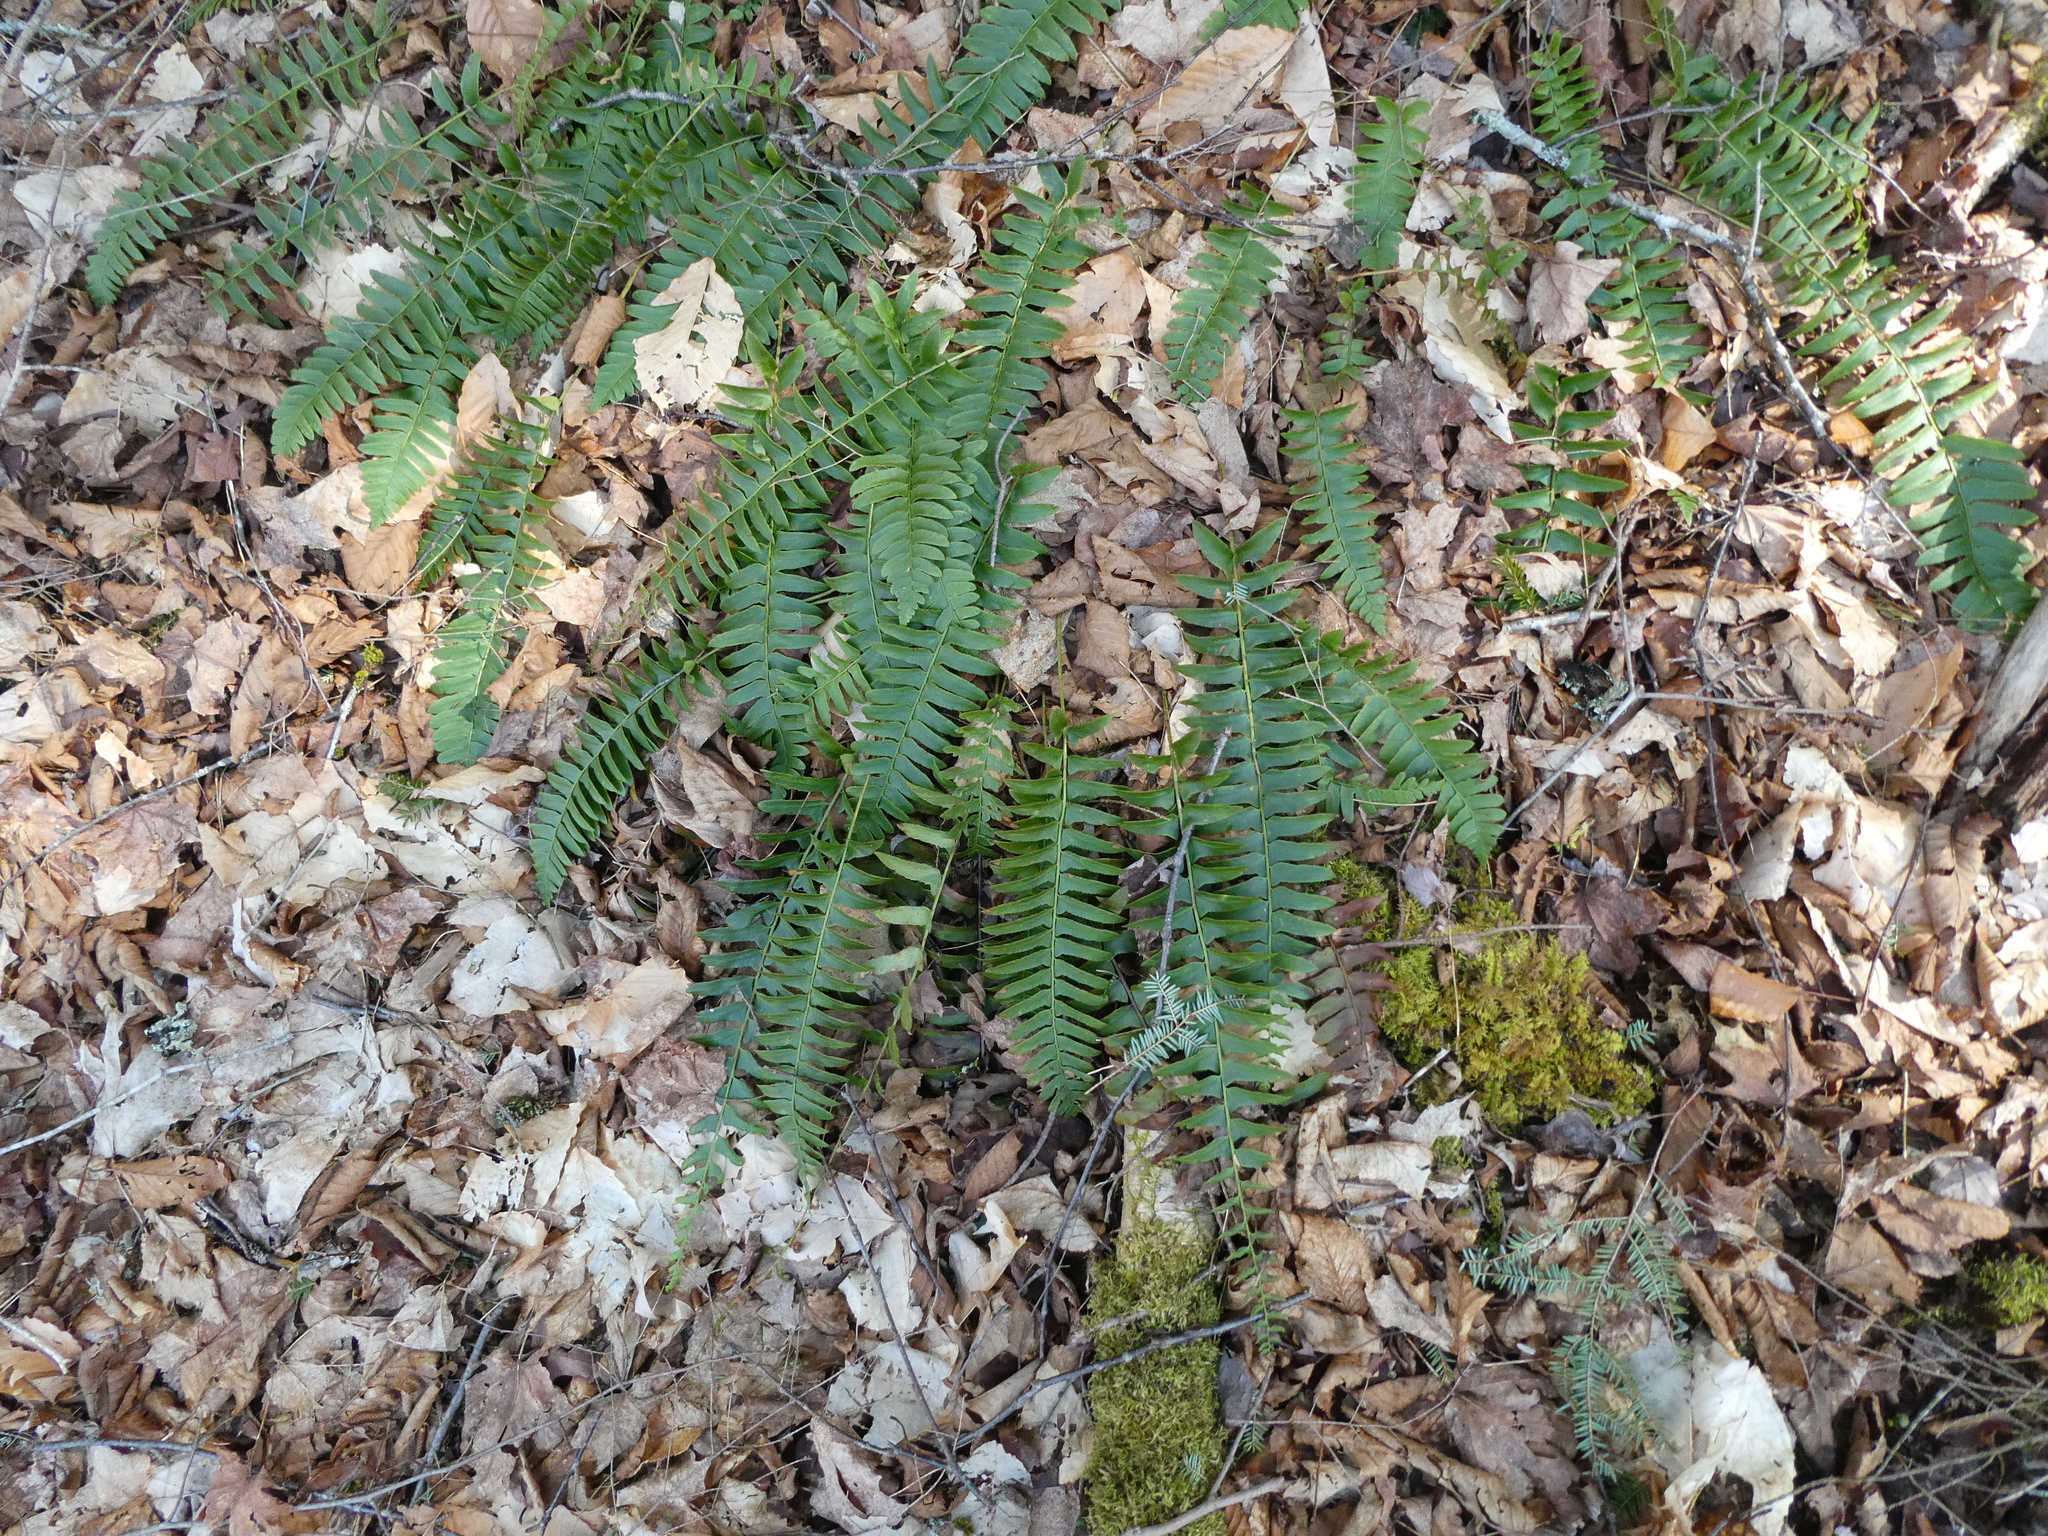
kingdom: Plantae
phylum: Tracheophyta
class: Polypodiopsida
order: Polypodiales
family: Dryopteridaceae
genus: Polystichum
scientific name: Polystichum acrostichoides
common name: Christmas fern
